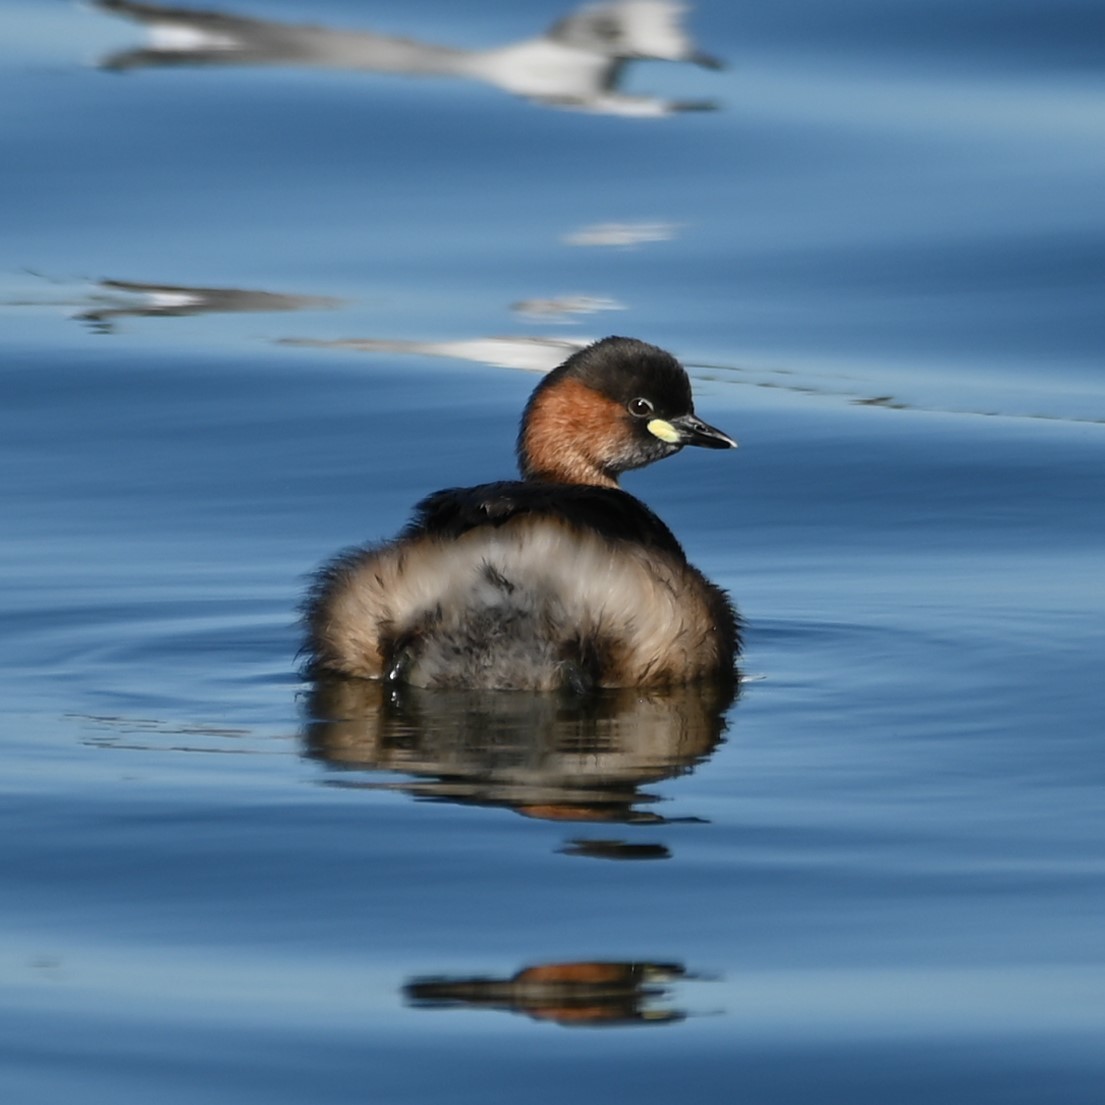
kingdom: Animalia
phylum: Chordata
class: Aves
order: Podicipediformes
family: Podicipedidae
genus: Tachybaptus
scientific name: Tachybaptus ruficollis
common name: Little grebe
